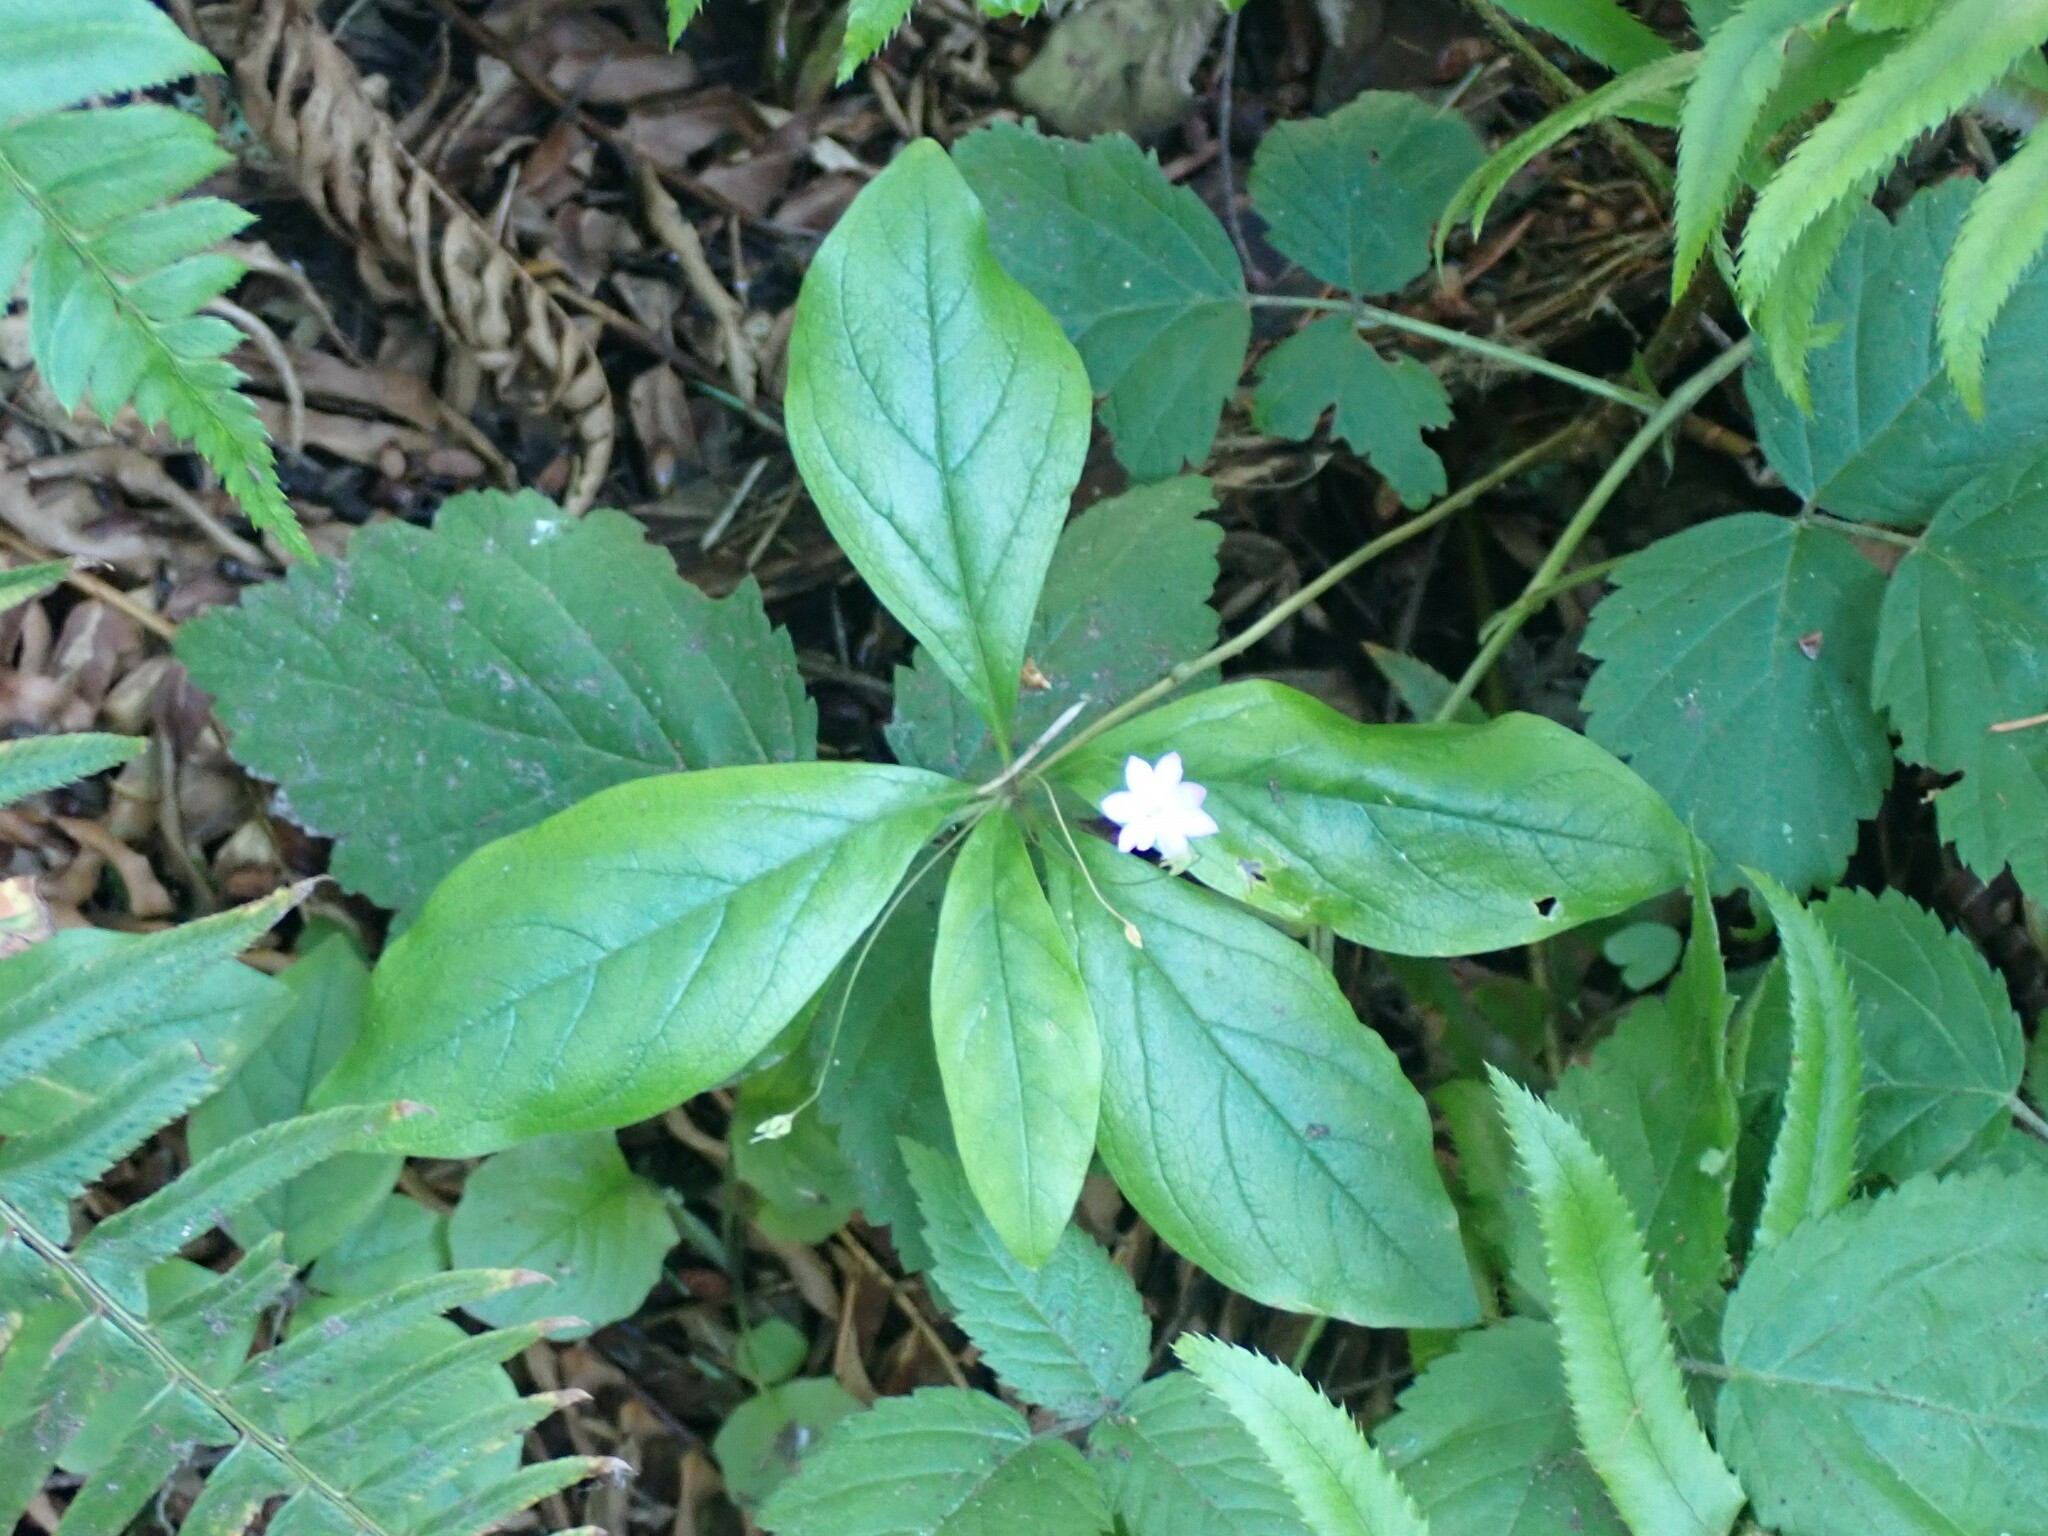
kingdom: Plantae
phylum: Tracheophyta
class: Magnoliopsida
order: Ericales
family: Primulaceae
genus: Lysimachia
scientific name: Lysimachia latifolia
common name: Pacific starflower
